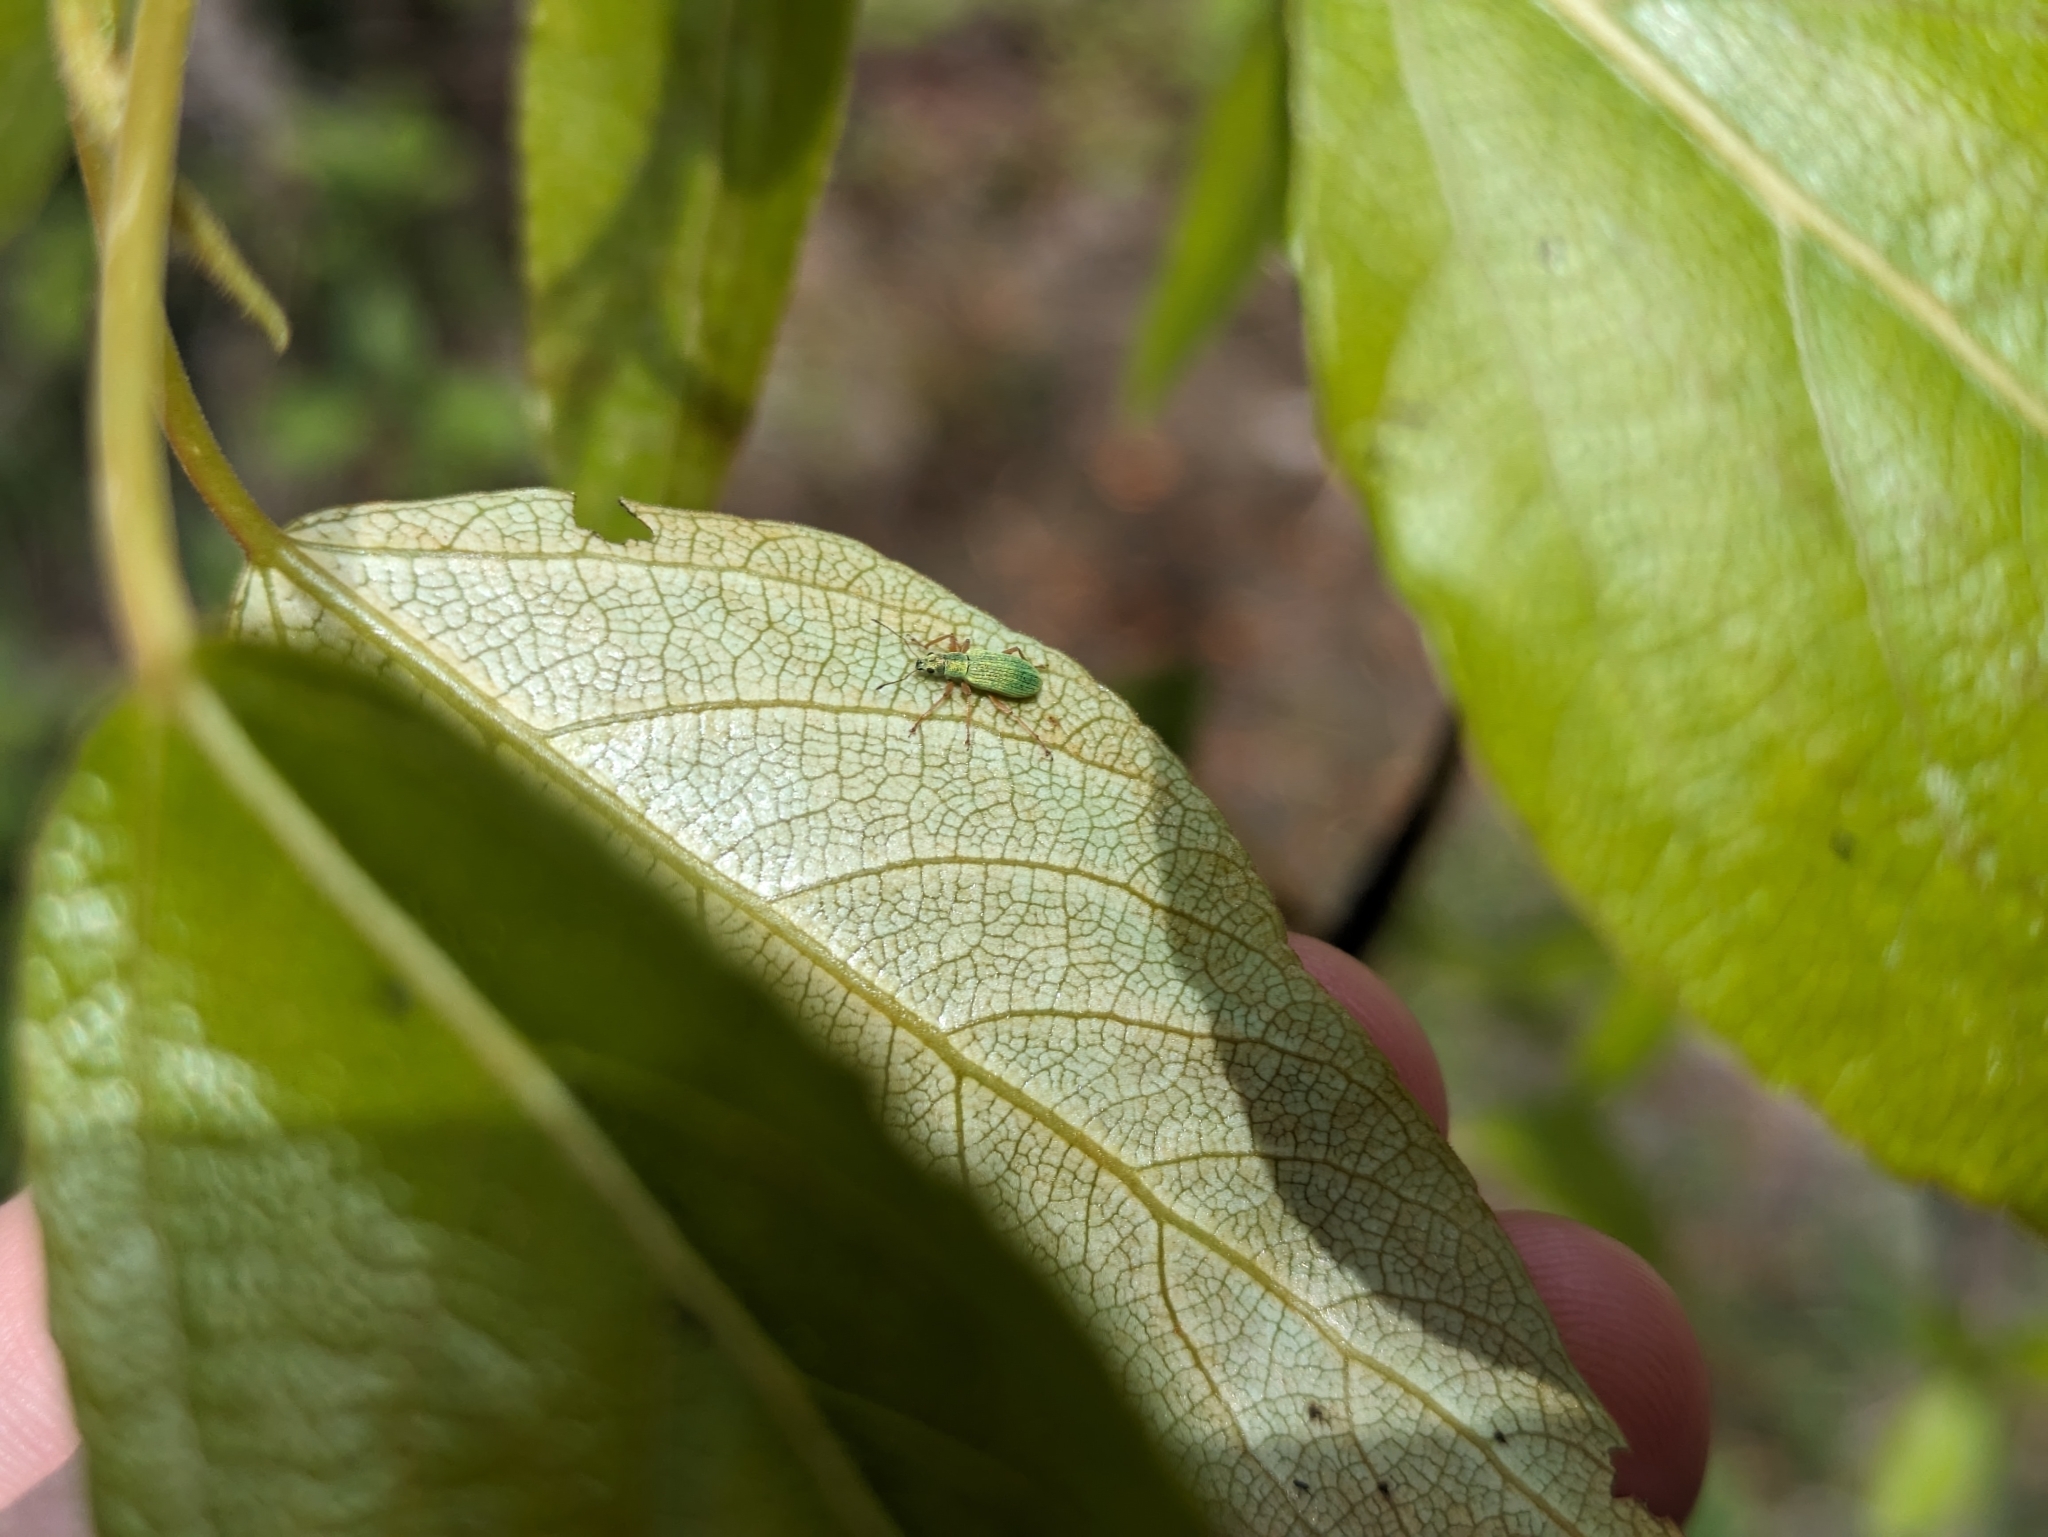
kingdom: Animalia
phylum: Arthropoda
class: Insecta
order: Coleoptera
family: Curculionidae
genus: Polydrusus
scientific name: Polydrusus impressifrons
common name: Weevil
